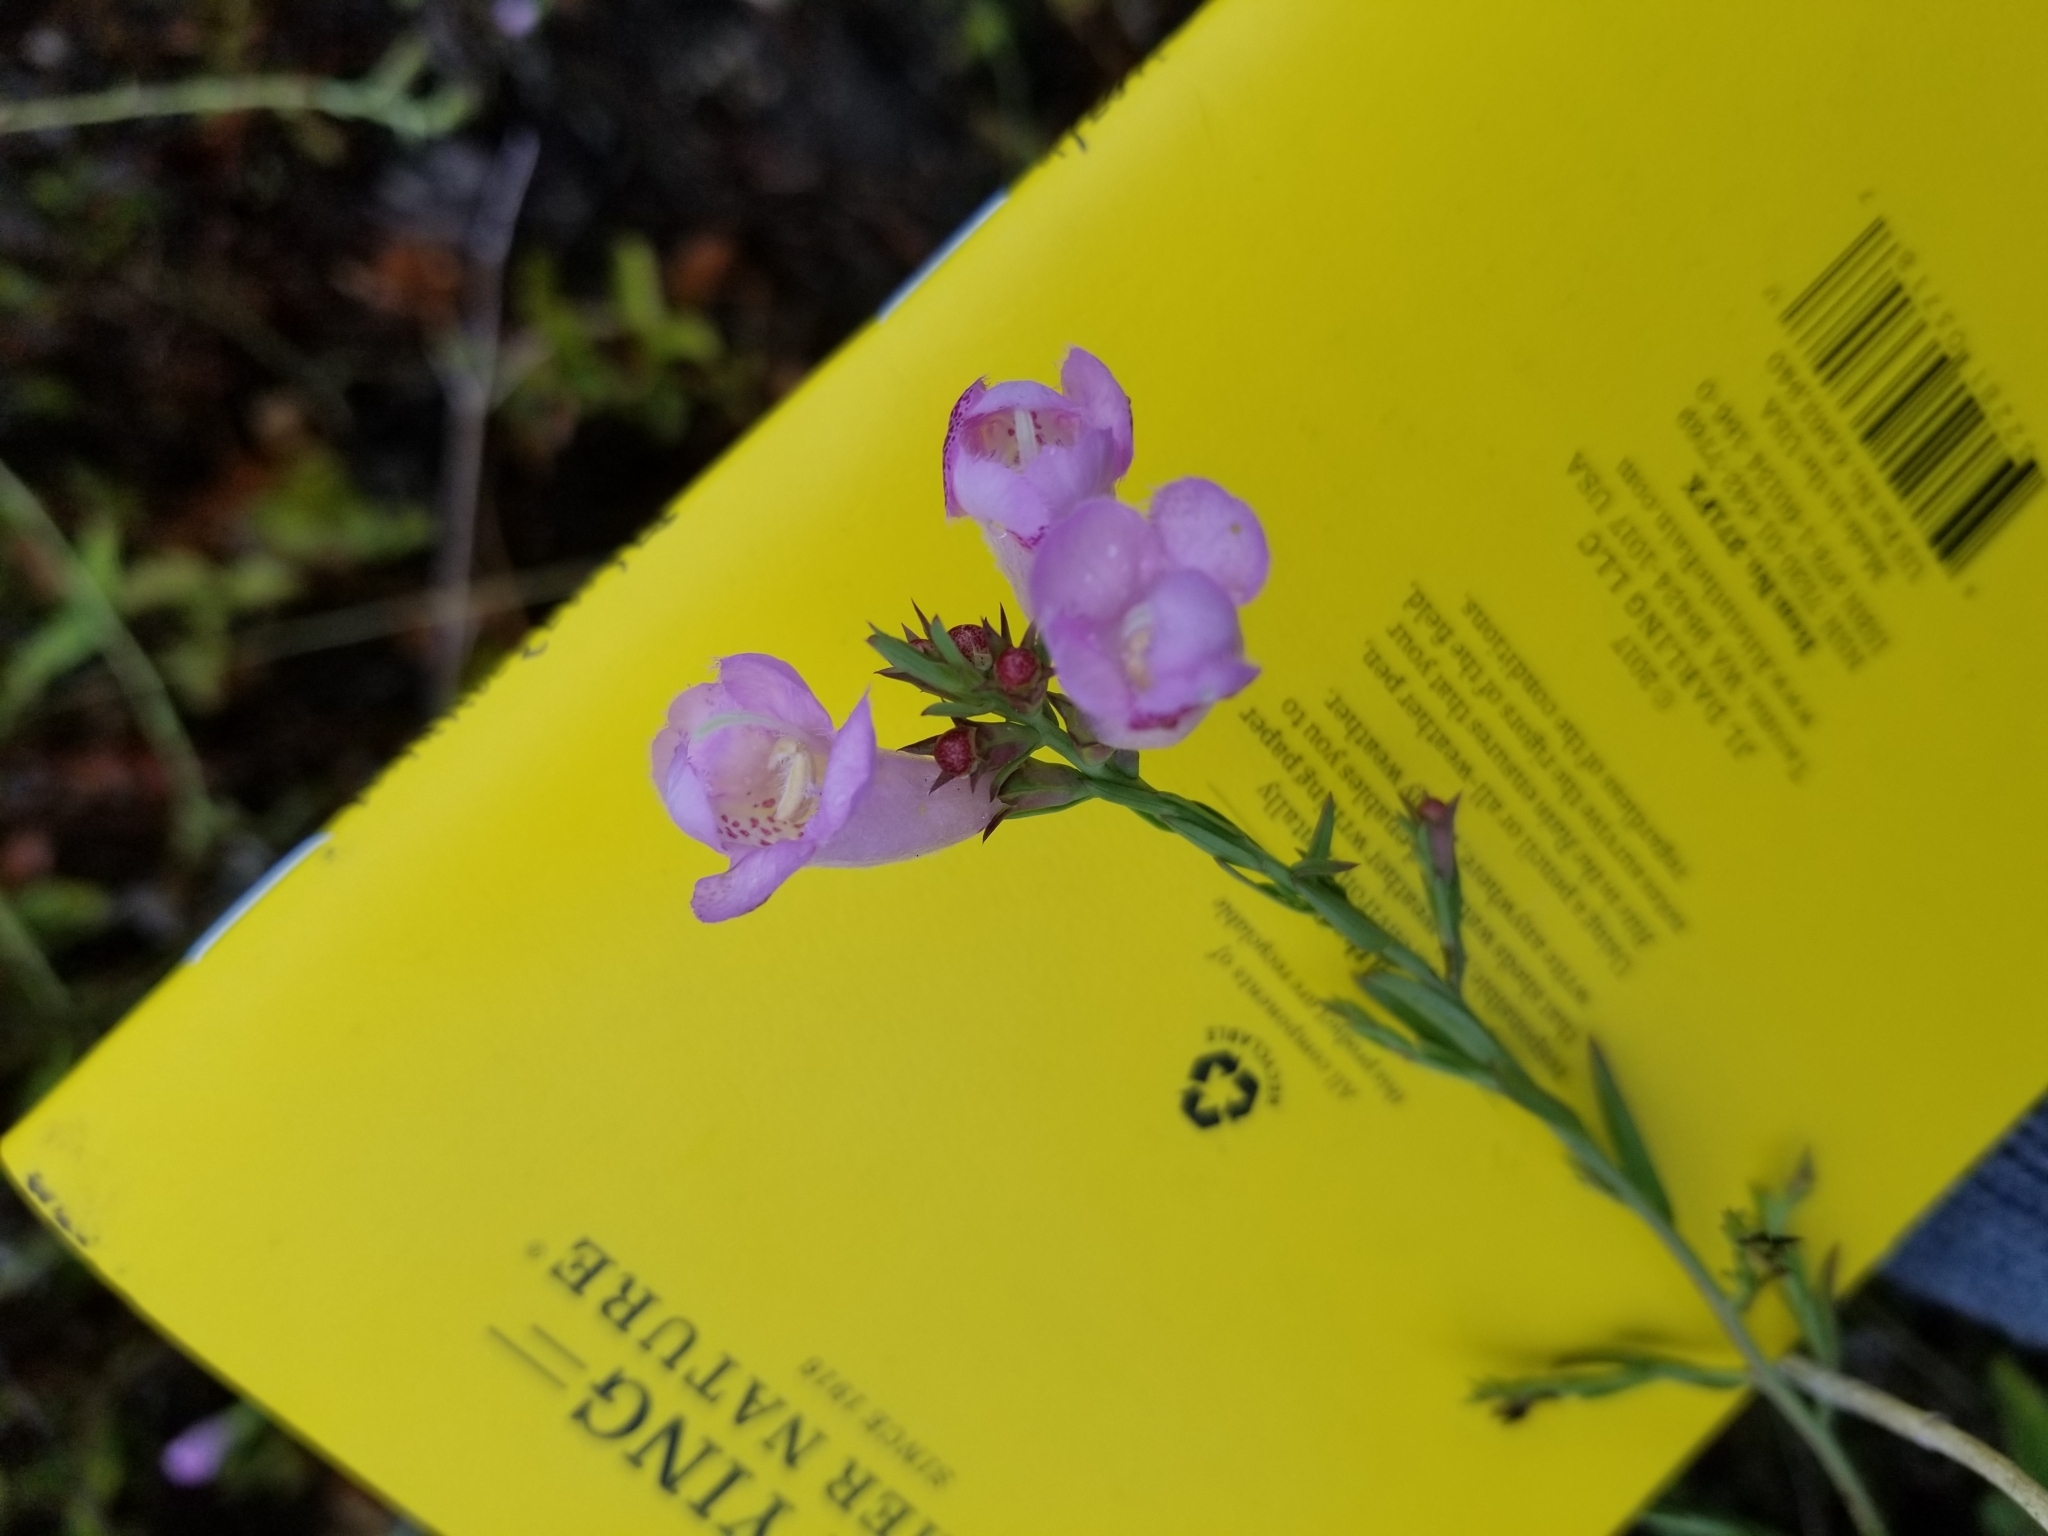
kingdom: Plantae
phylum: Tracheophyta
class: Magnoliopsida
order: Lamiales
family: Orobanchaceae
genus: Agalinis
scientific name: Agalinis heterophylla
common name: Prairie agalinis
